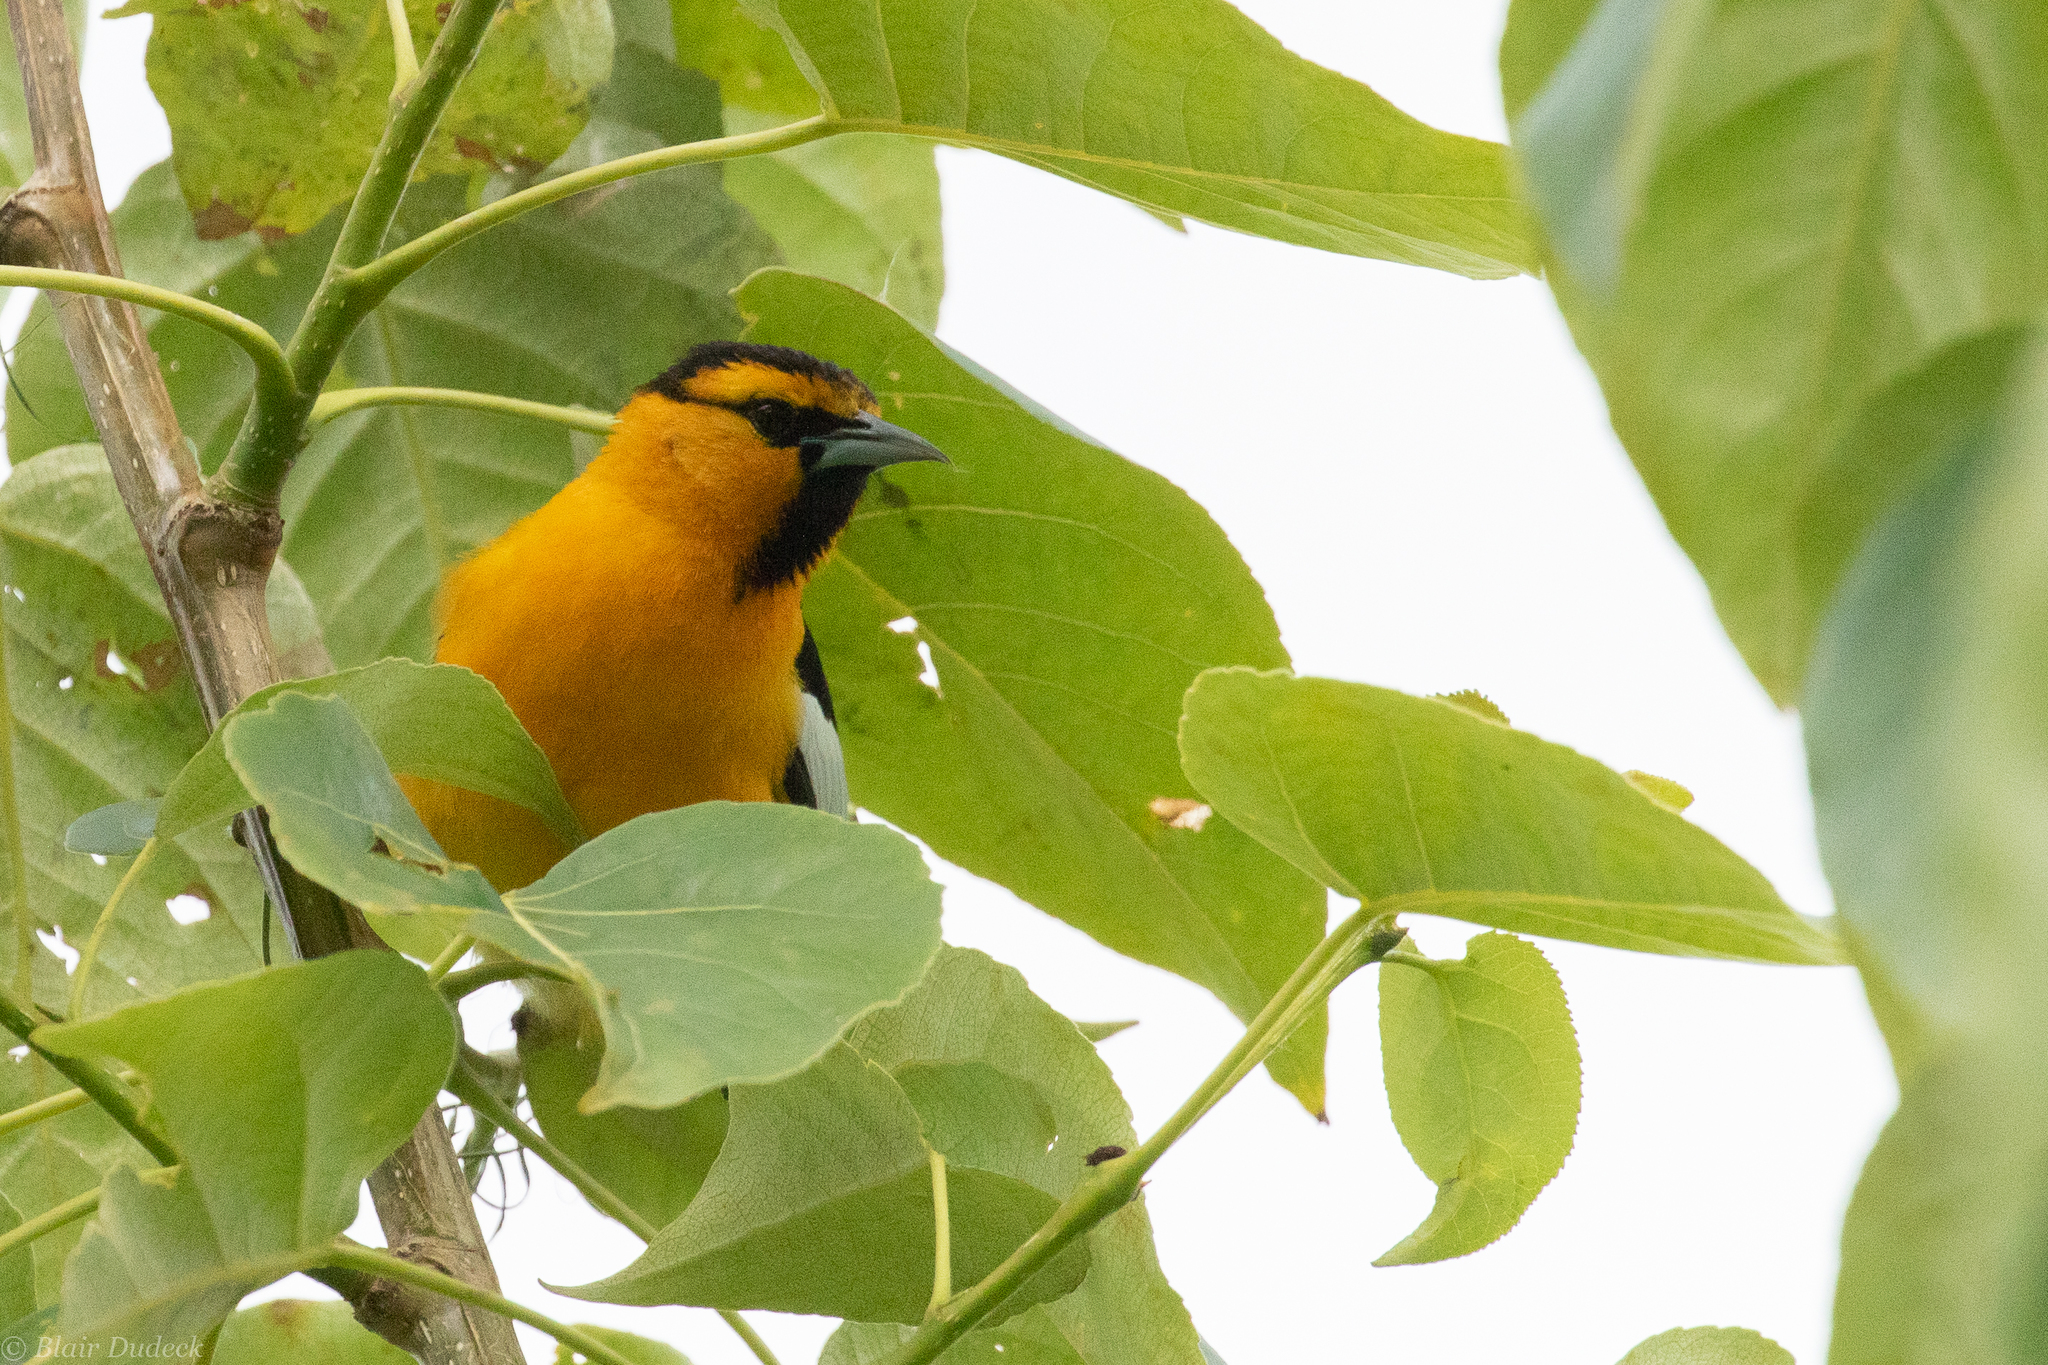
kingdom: Animalia
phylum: Chordata
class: Aves
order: Passeriformes
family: Icteridae
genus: Icterus
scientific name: Icterus bullockii
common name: Bullock's oriole
